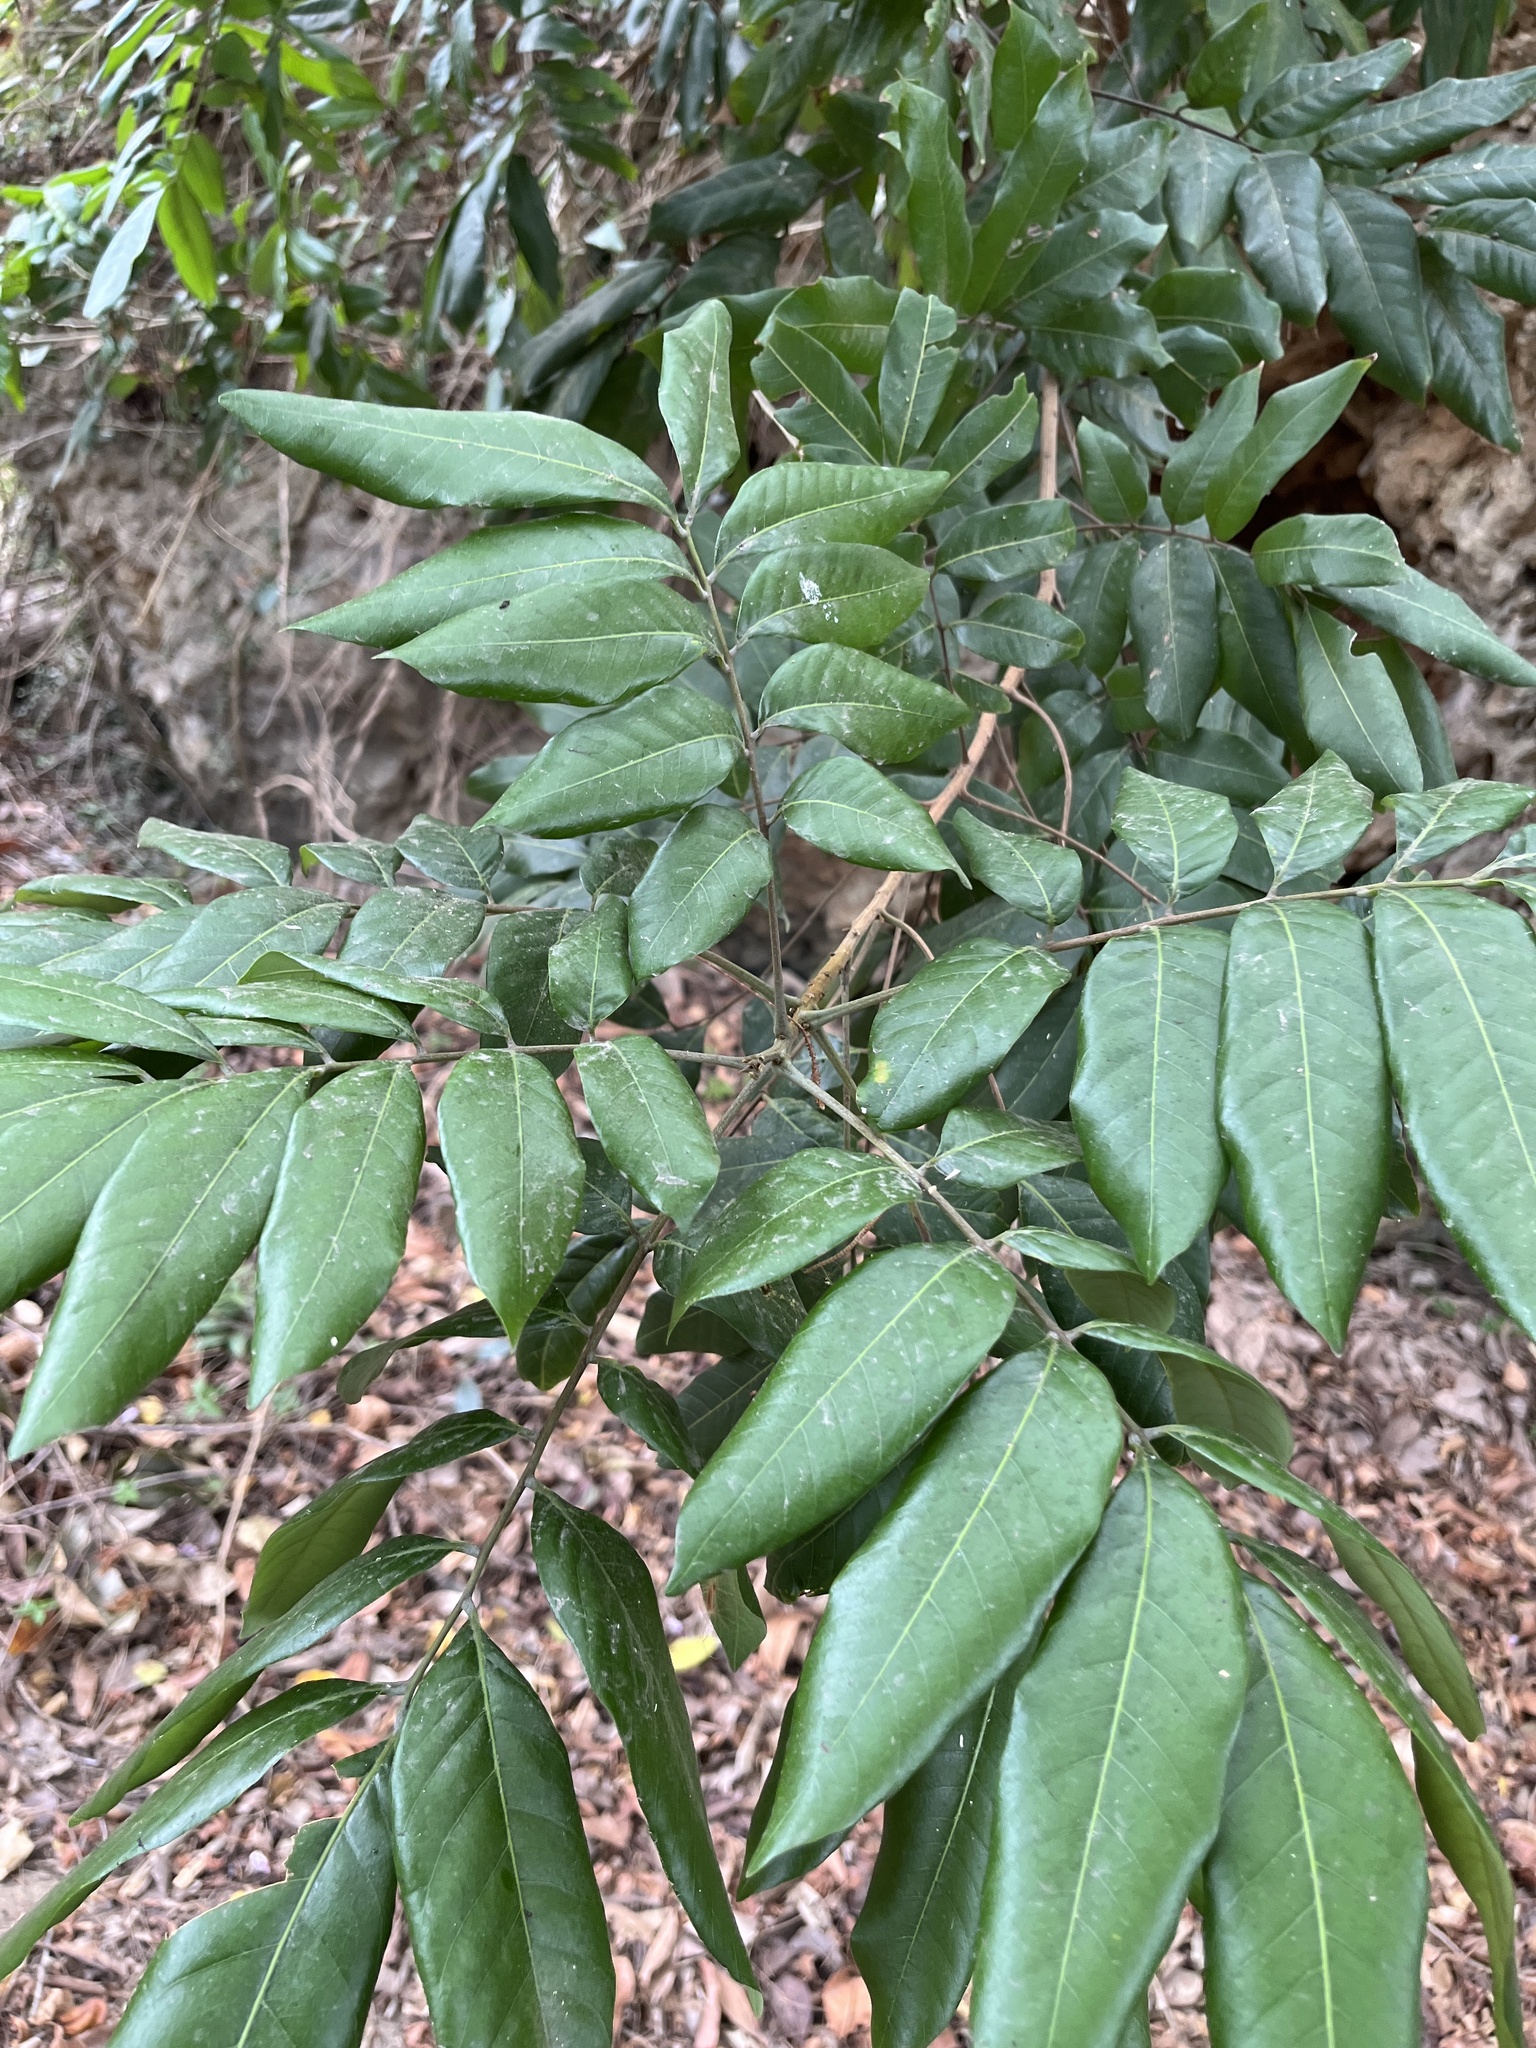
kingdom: Plantae
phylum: Tracheophyta
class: Magnoliopsida
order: Sapindales
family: Sapindaceae
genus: Dimocarpus
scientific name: Dimocarpus longan
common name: Longan
